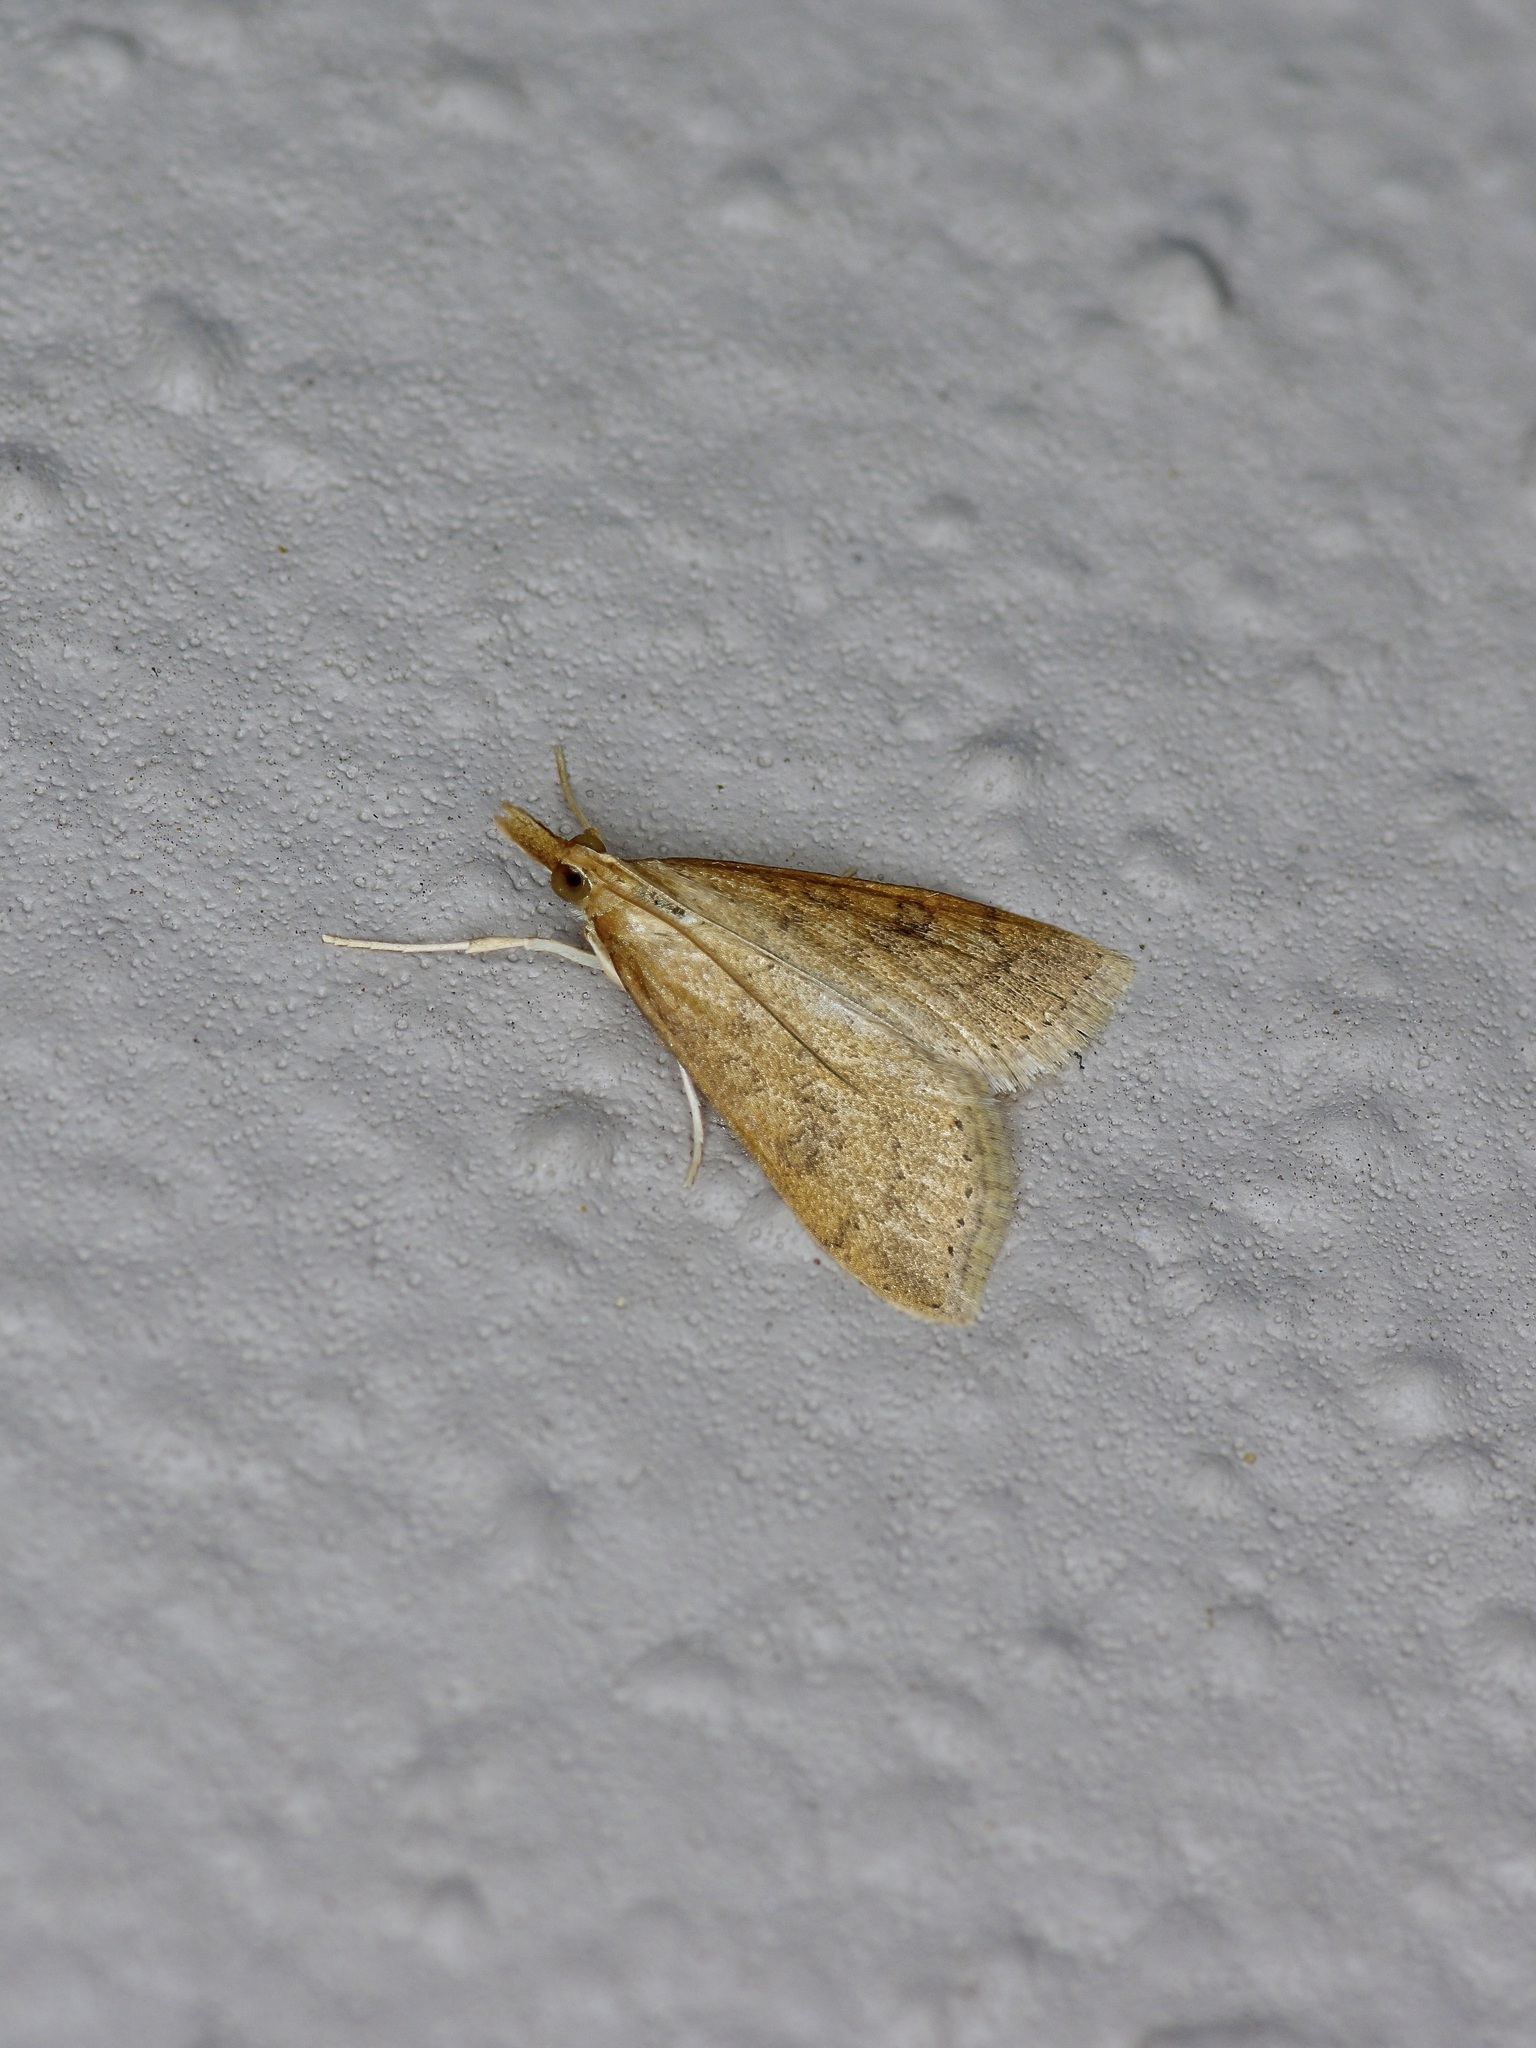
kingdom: Animalia
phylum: Arthropoda
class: Insecta
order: Lepidoptera
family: Crambidae
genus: Udea
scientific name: Udea rubigalis
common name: Celery leaftier moth
